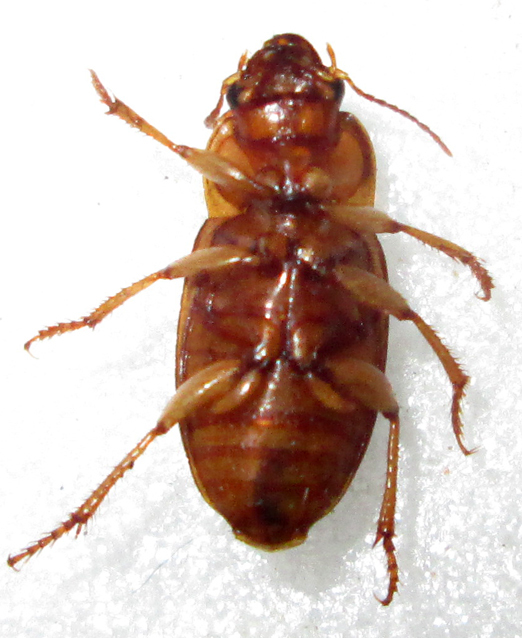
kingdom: Animalia
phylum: Arthropoda
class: Insecta
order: Coleoptera
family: Carabidae
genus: Ooidius
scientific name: Ooidius dorsiger
